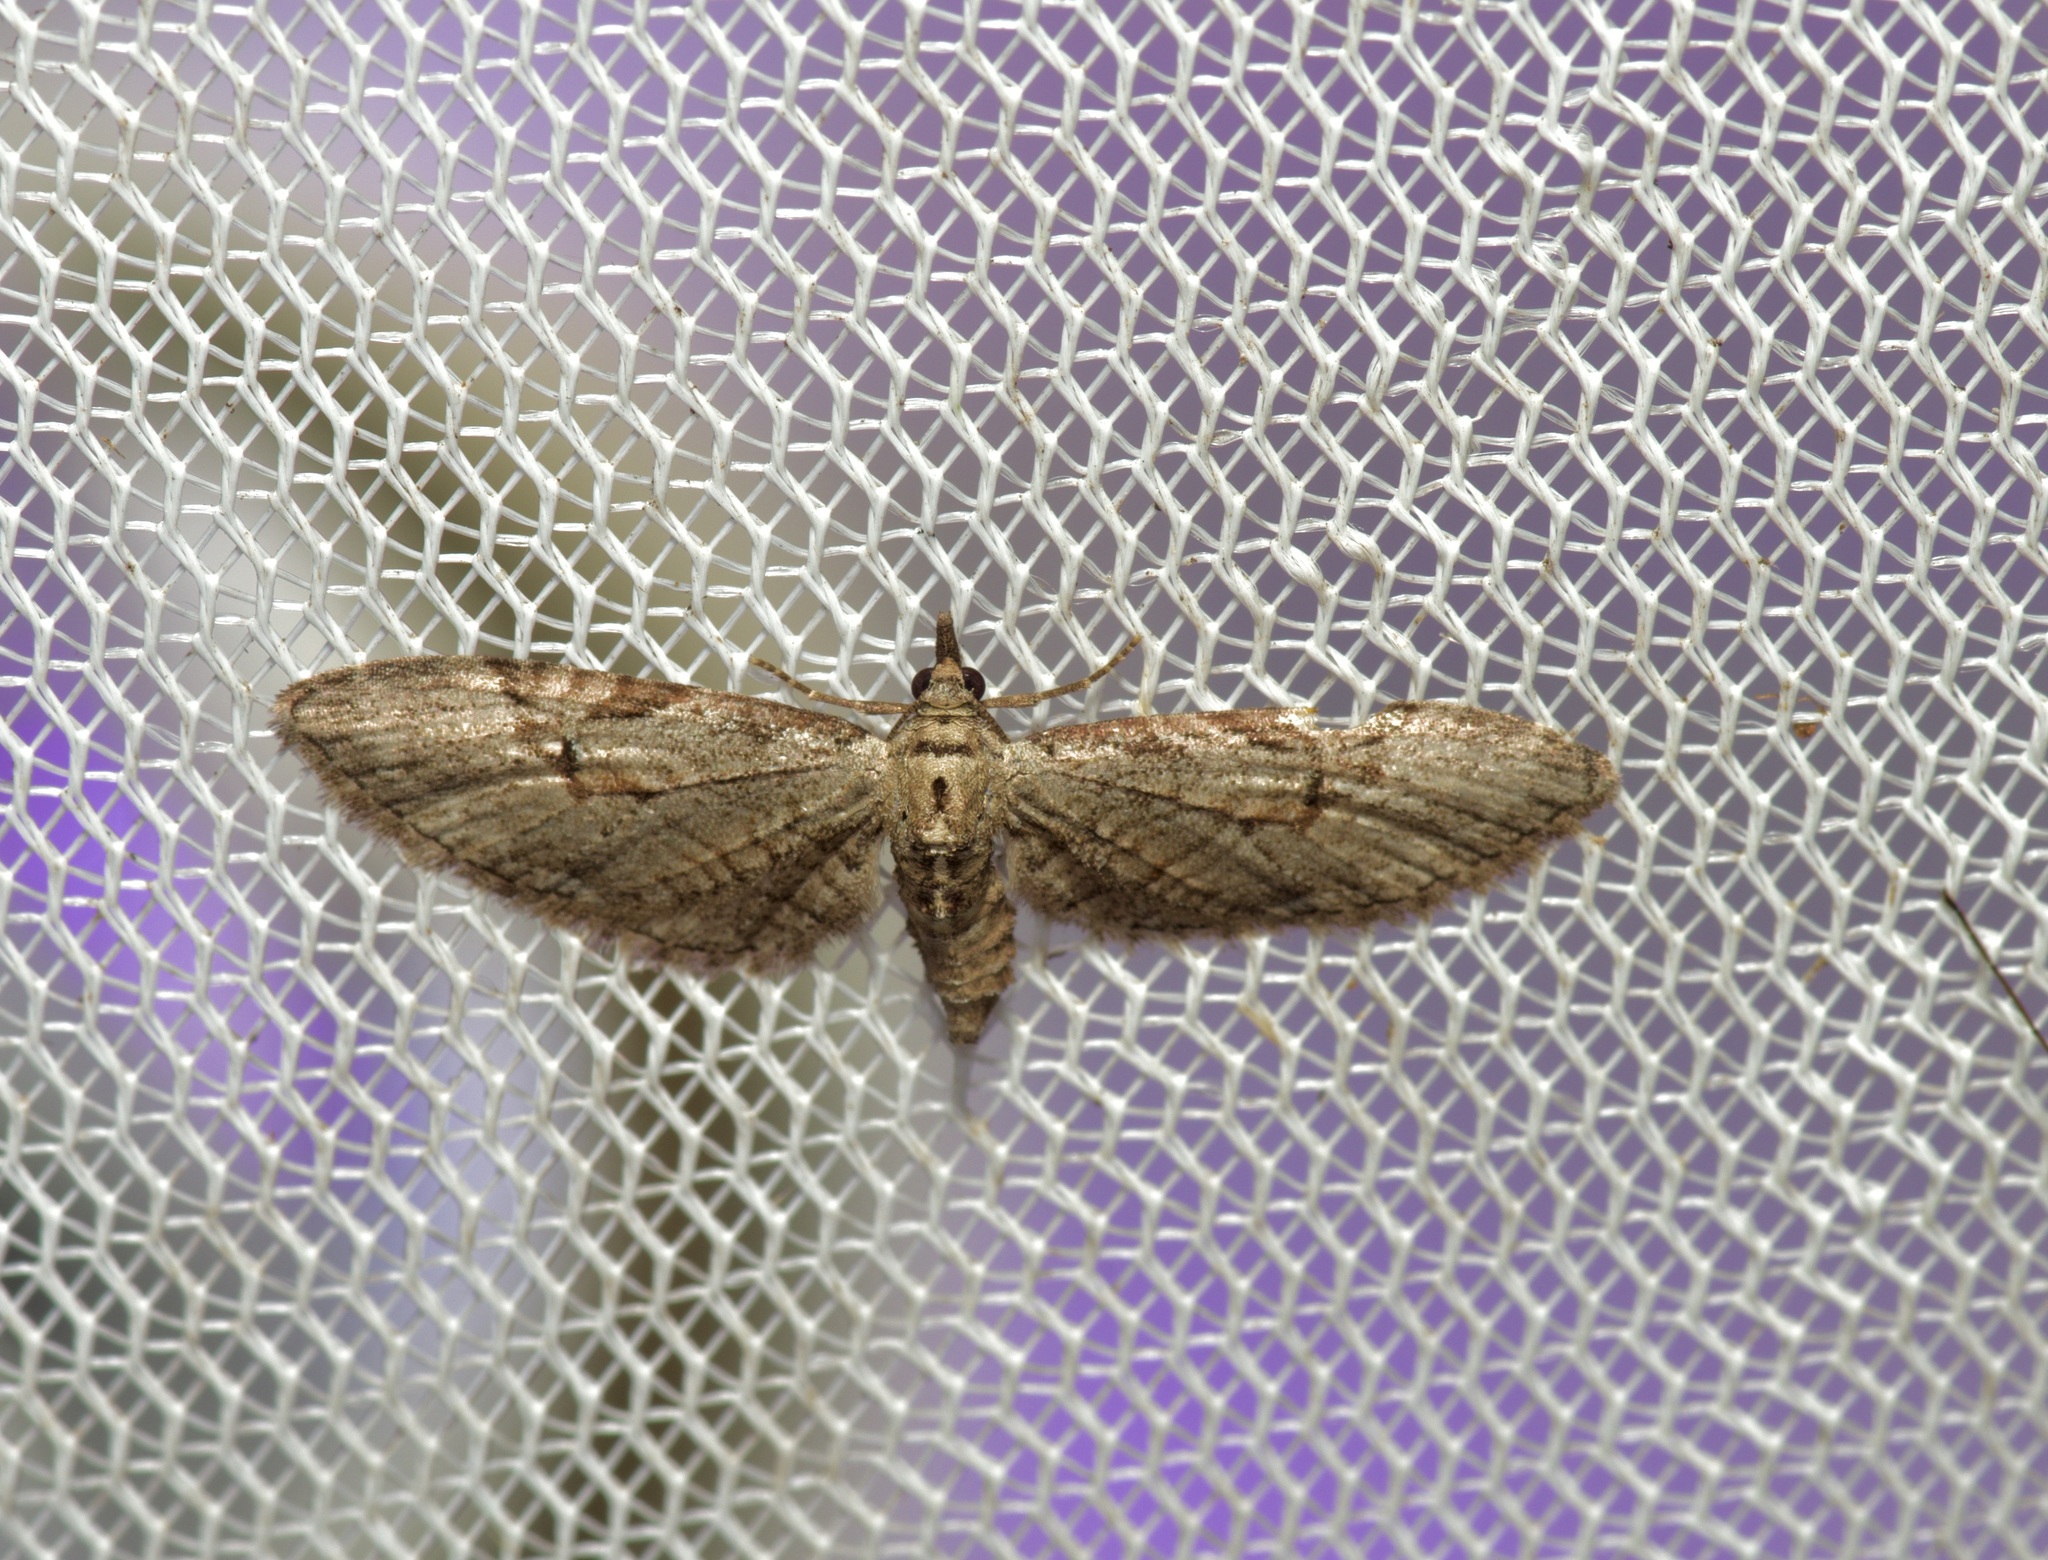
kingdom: Animalia
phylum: Arthropoda
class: Insecta
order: Lepidoptera
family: Geometridae
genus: Eupithecia
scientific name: Eupithecia bolterii
